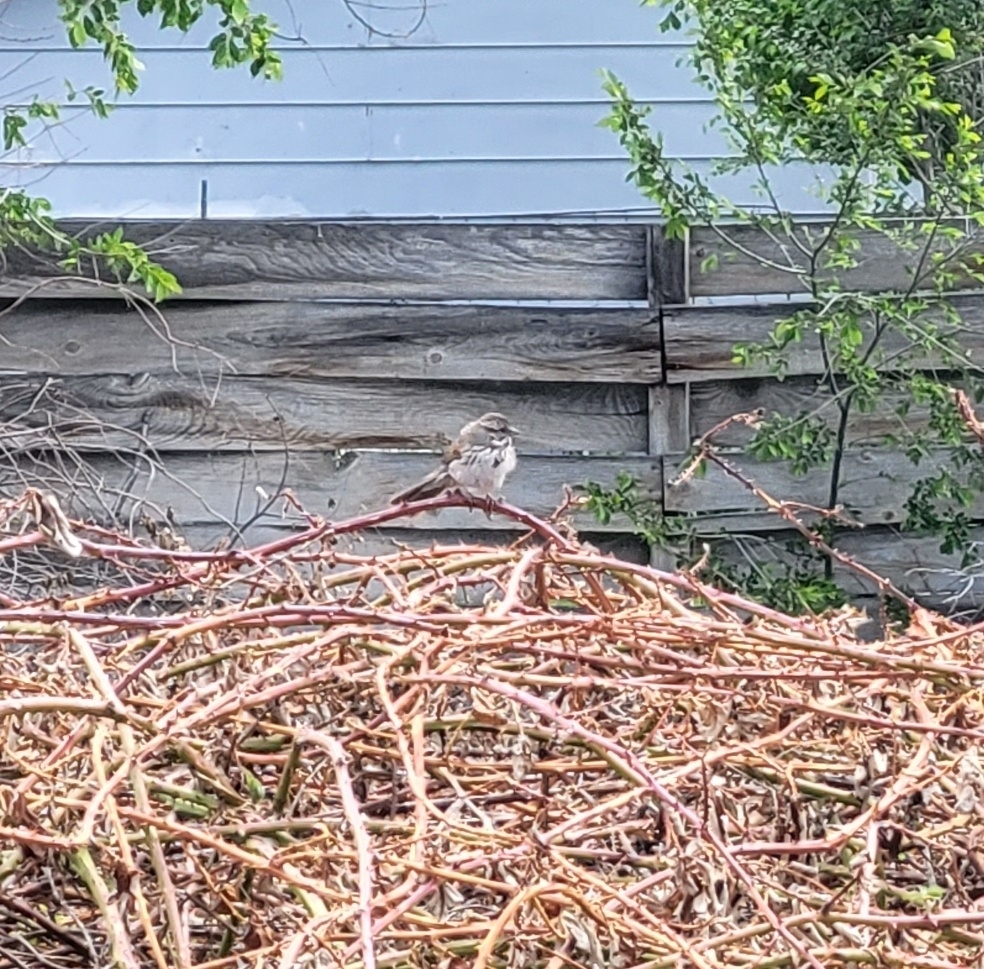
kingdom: Animalia
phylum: Chordata
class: Aves
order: Passeriformes
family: Passerellidae
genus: Melospiza
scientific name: Melospiza melodia
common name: Song sparrow
